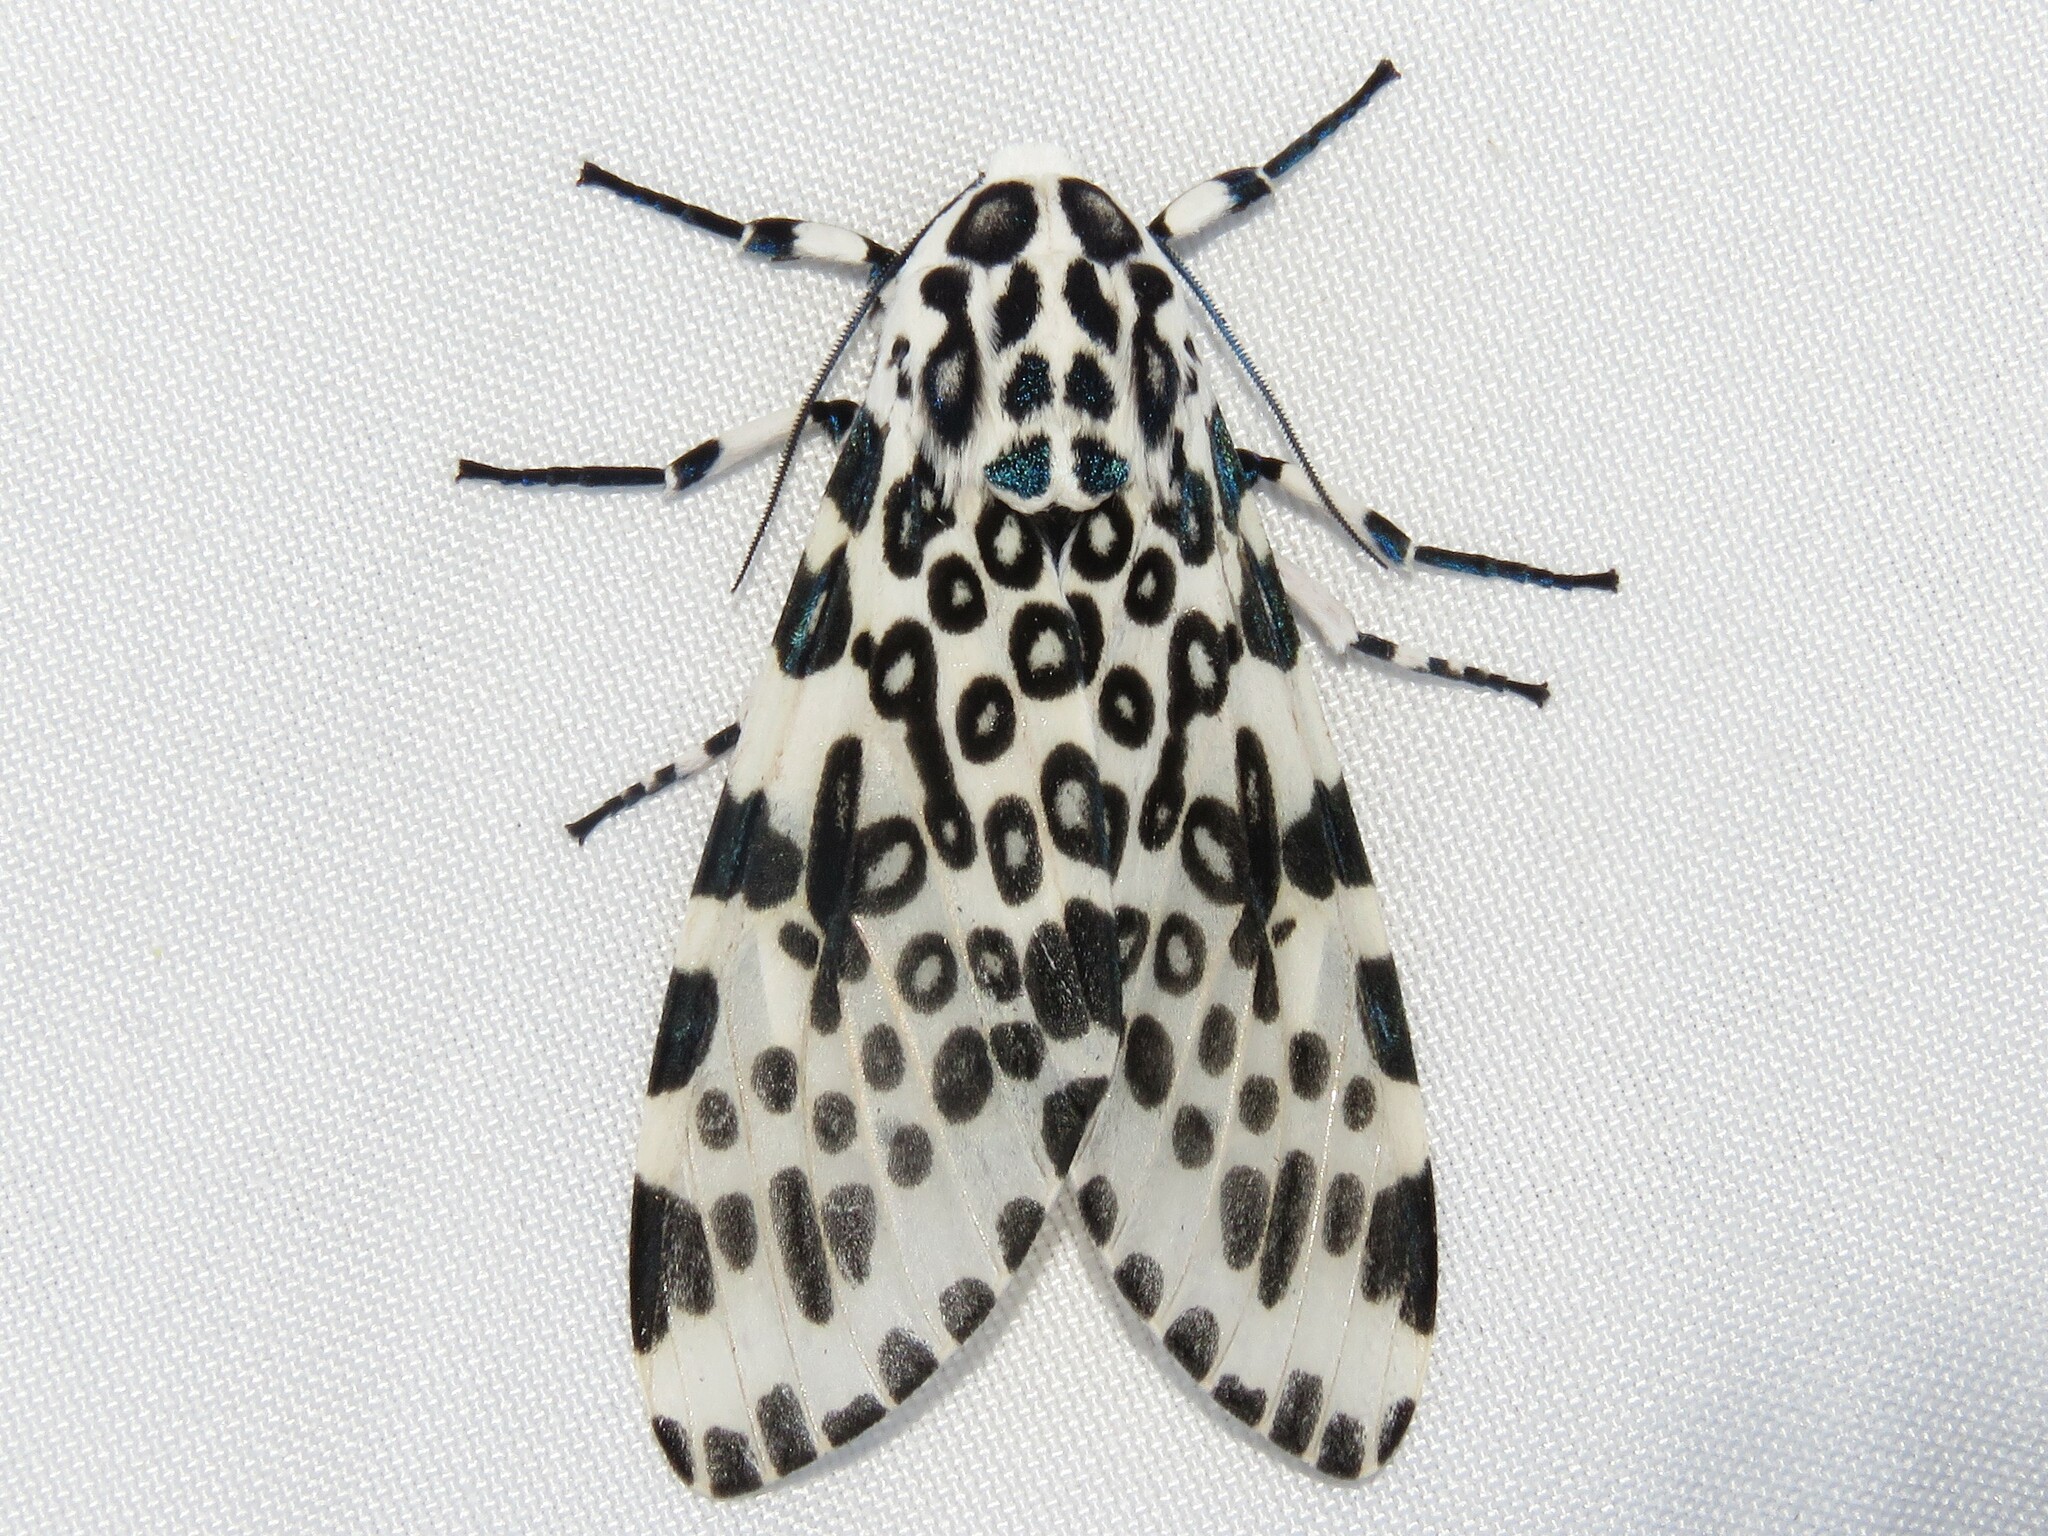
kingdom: Animalia
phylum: Arthropoda
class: Insecta
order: Lepidoptera
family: Erebidae
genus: Hypercompe
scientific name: Hypercompe scribonia
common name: Giant leopard moth
